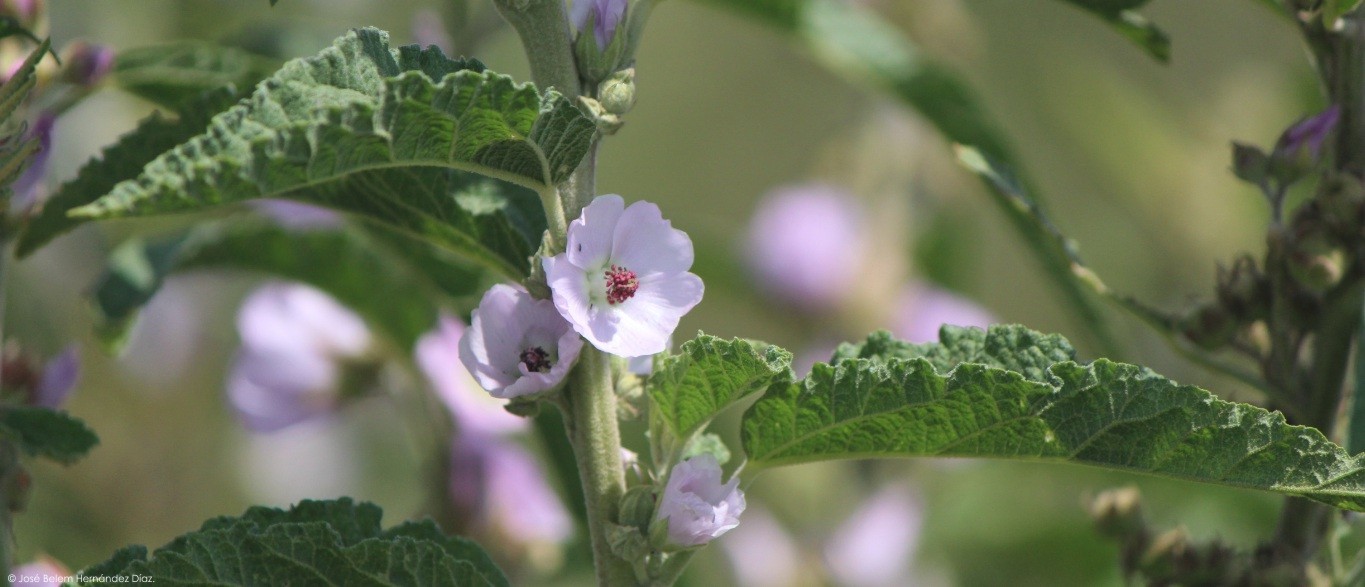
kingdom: Plantae
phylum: Tracheophyta
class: Magnoliopsida
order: Malvales
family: Malvaceae
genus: Sphaeralcea
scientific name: Sphaeralcea angustifolia
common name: Copper globe-mallow
